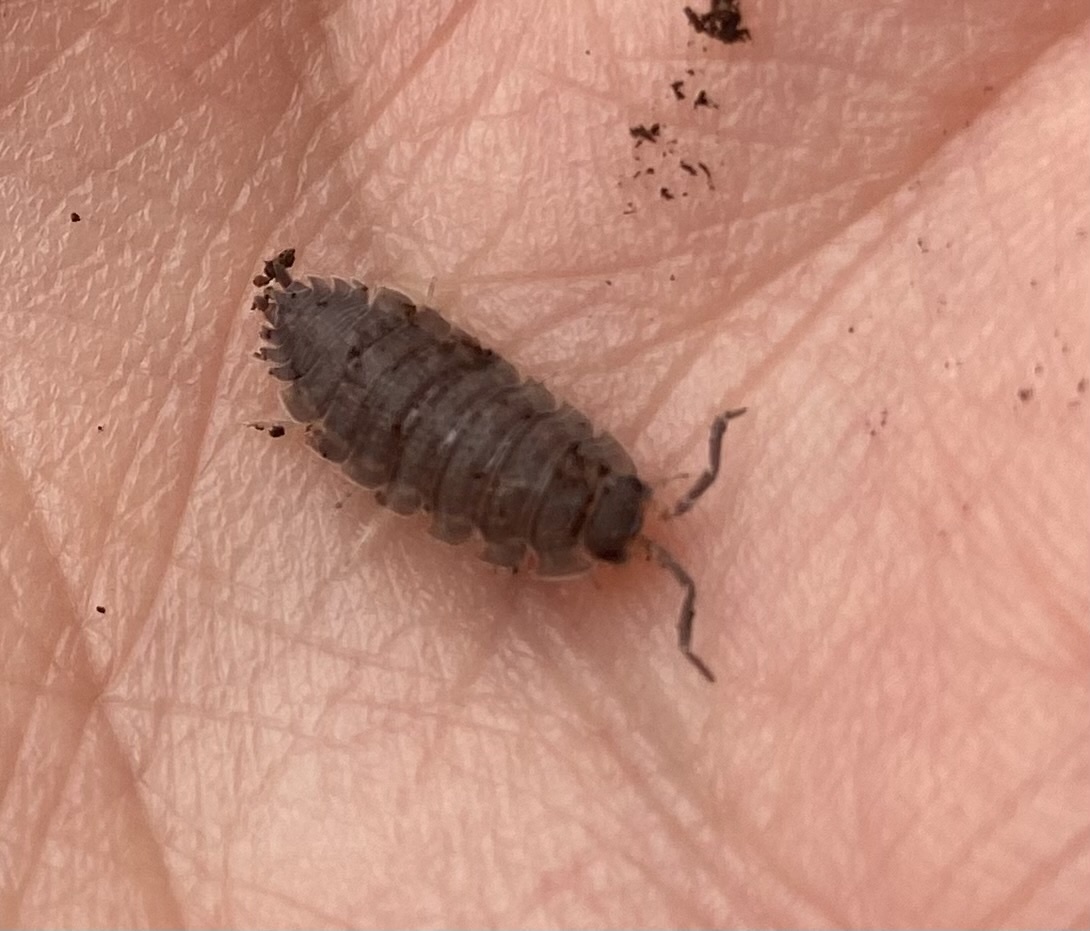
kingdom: Animalia
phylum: Arthropoda
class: Malacostraca
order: Isopoda
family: Porcellionidae
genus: Porcellio
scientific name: Porcellio scaber
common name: Common rough woodlouse
